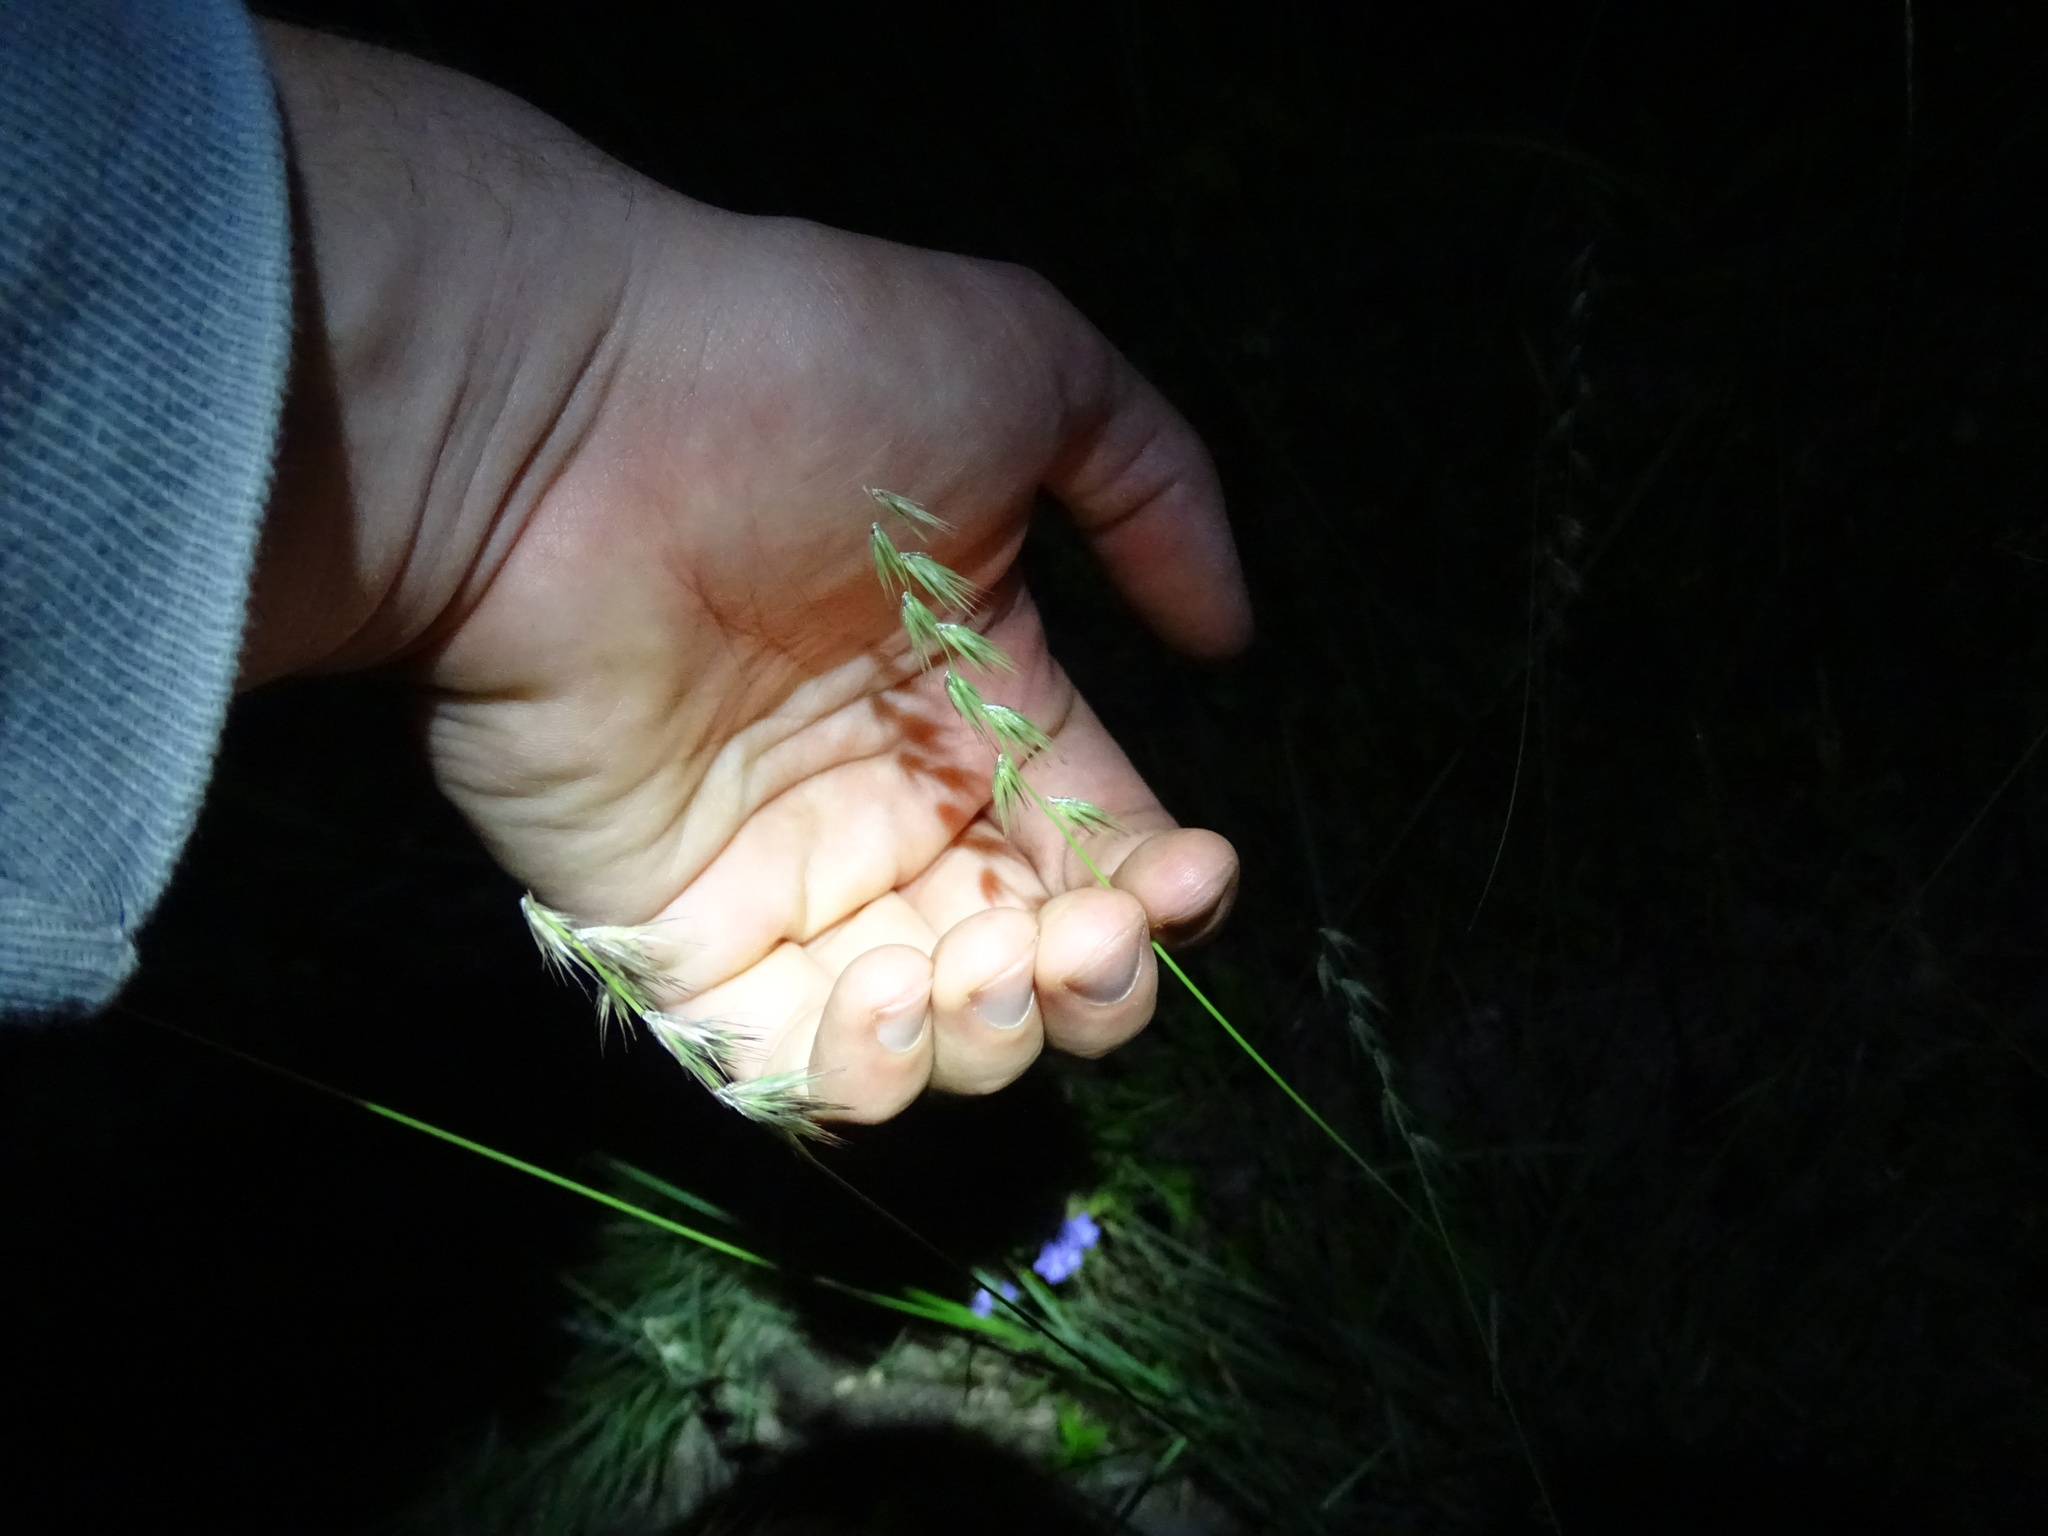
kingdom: Plantae
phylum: Tracheophyta
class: Liliopsida
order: Poales
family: Poaceae
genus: Bouteloua
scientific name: Bouteloua rigidiseta
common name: Texas grama
